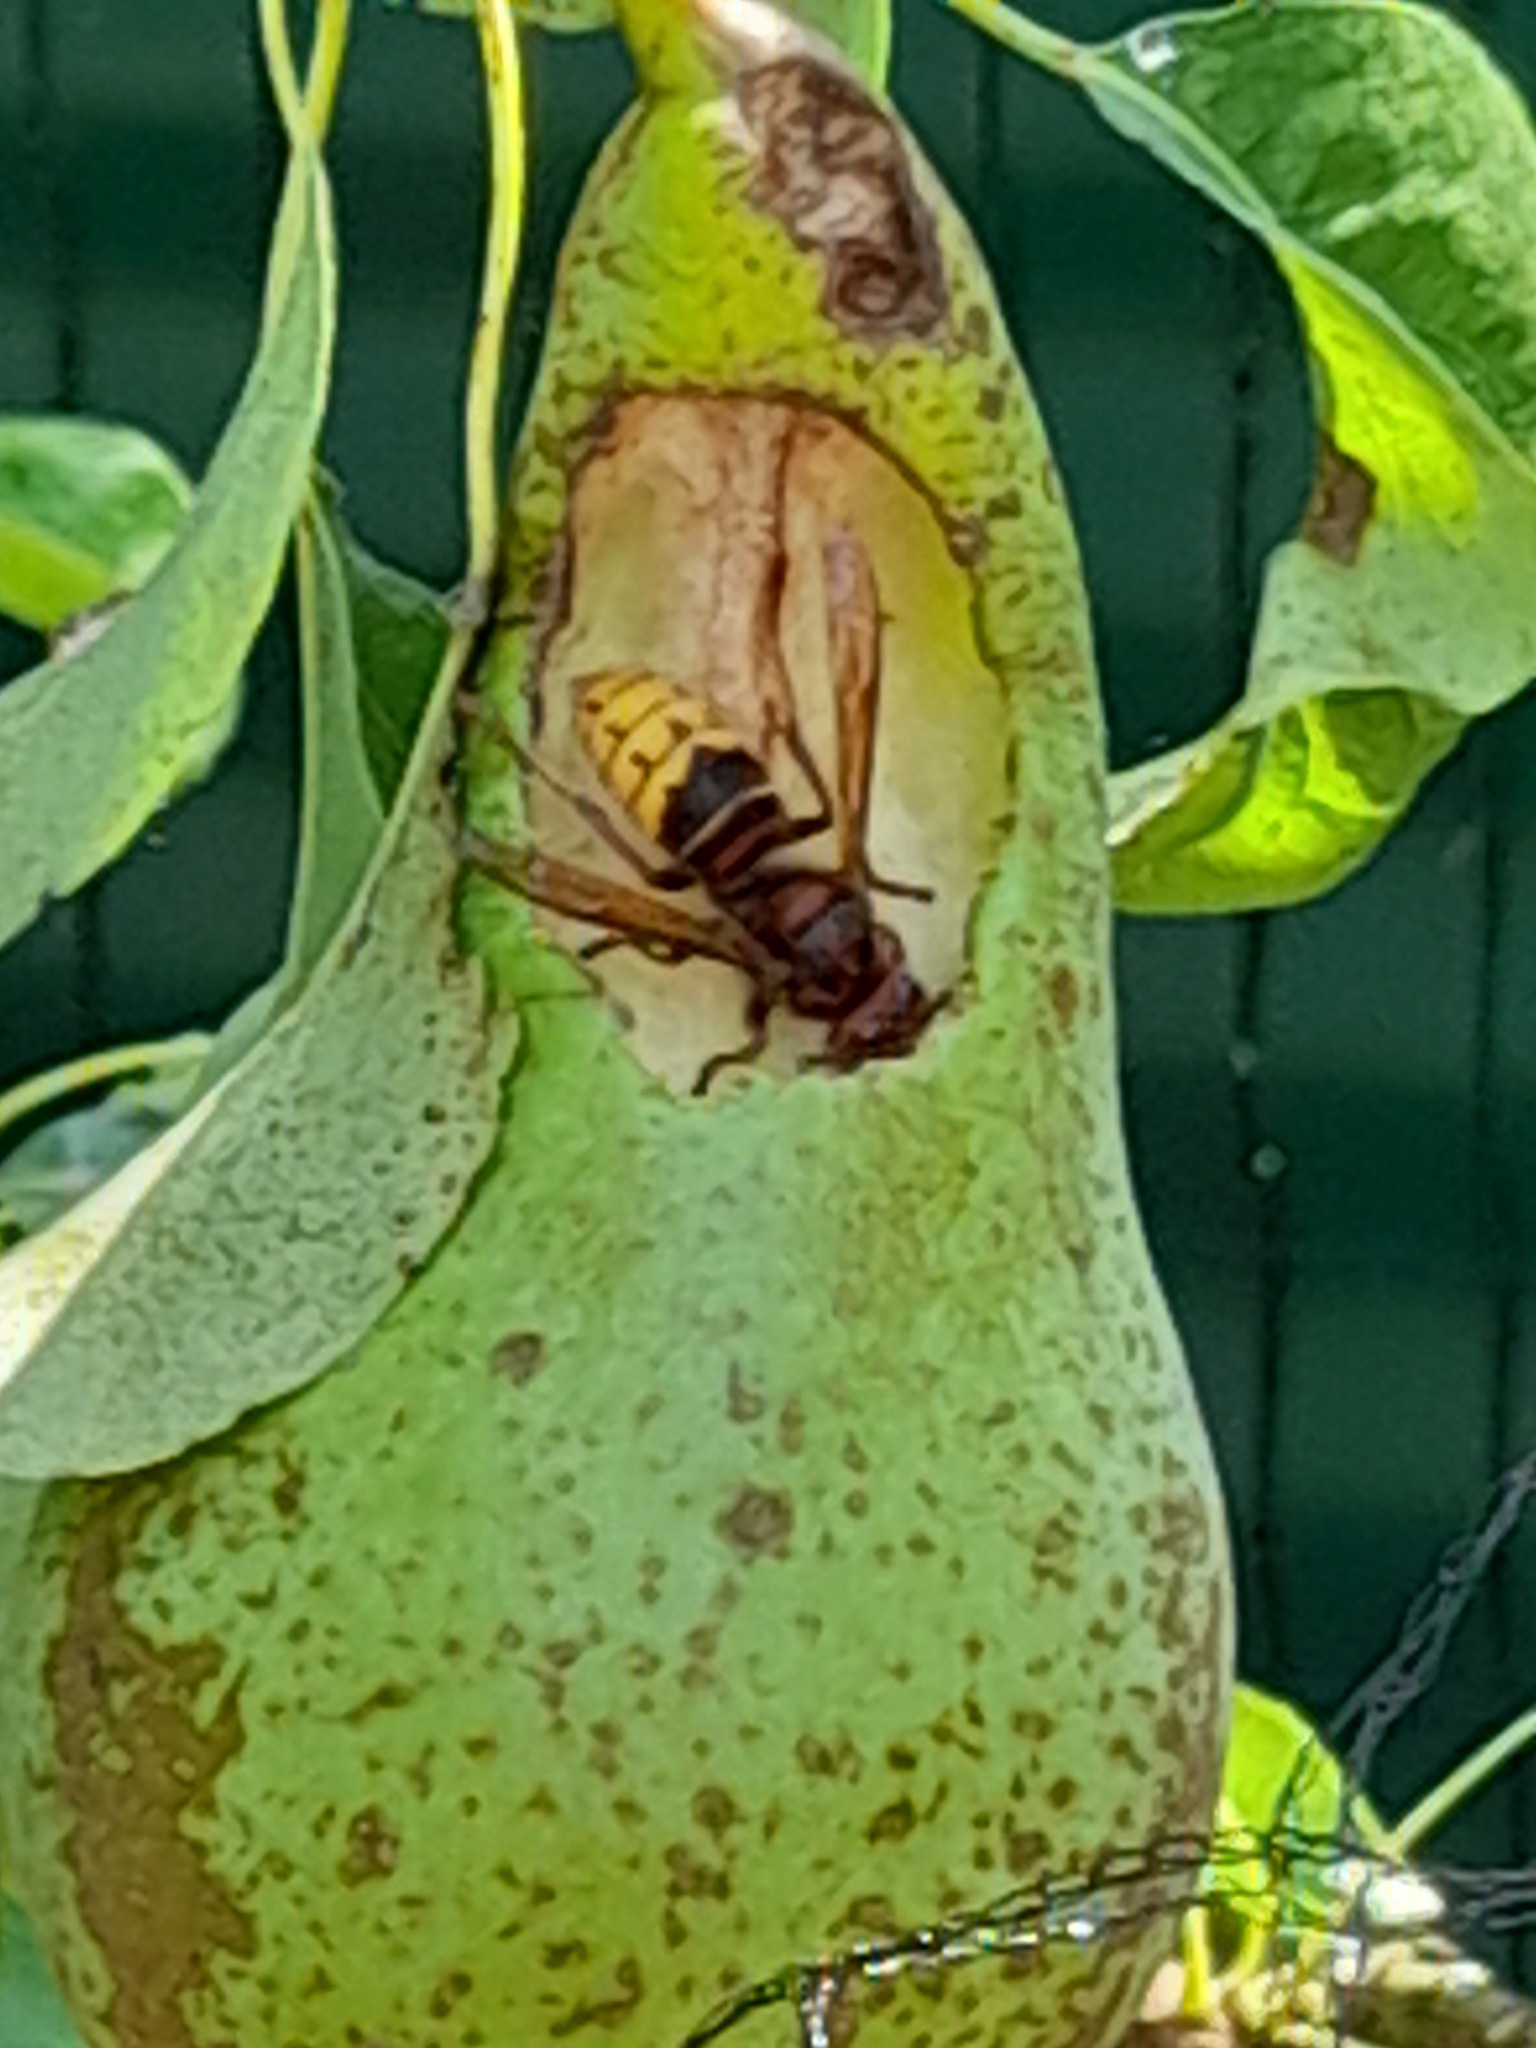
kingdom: Animalia
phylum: Arthropoda
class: Insecta
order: Hymenoptera
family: Vespidae
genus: Vespa
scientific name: Vespa crabro
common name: Hornet
